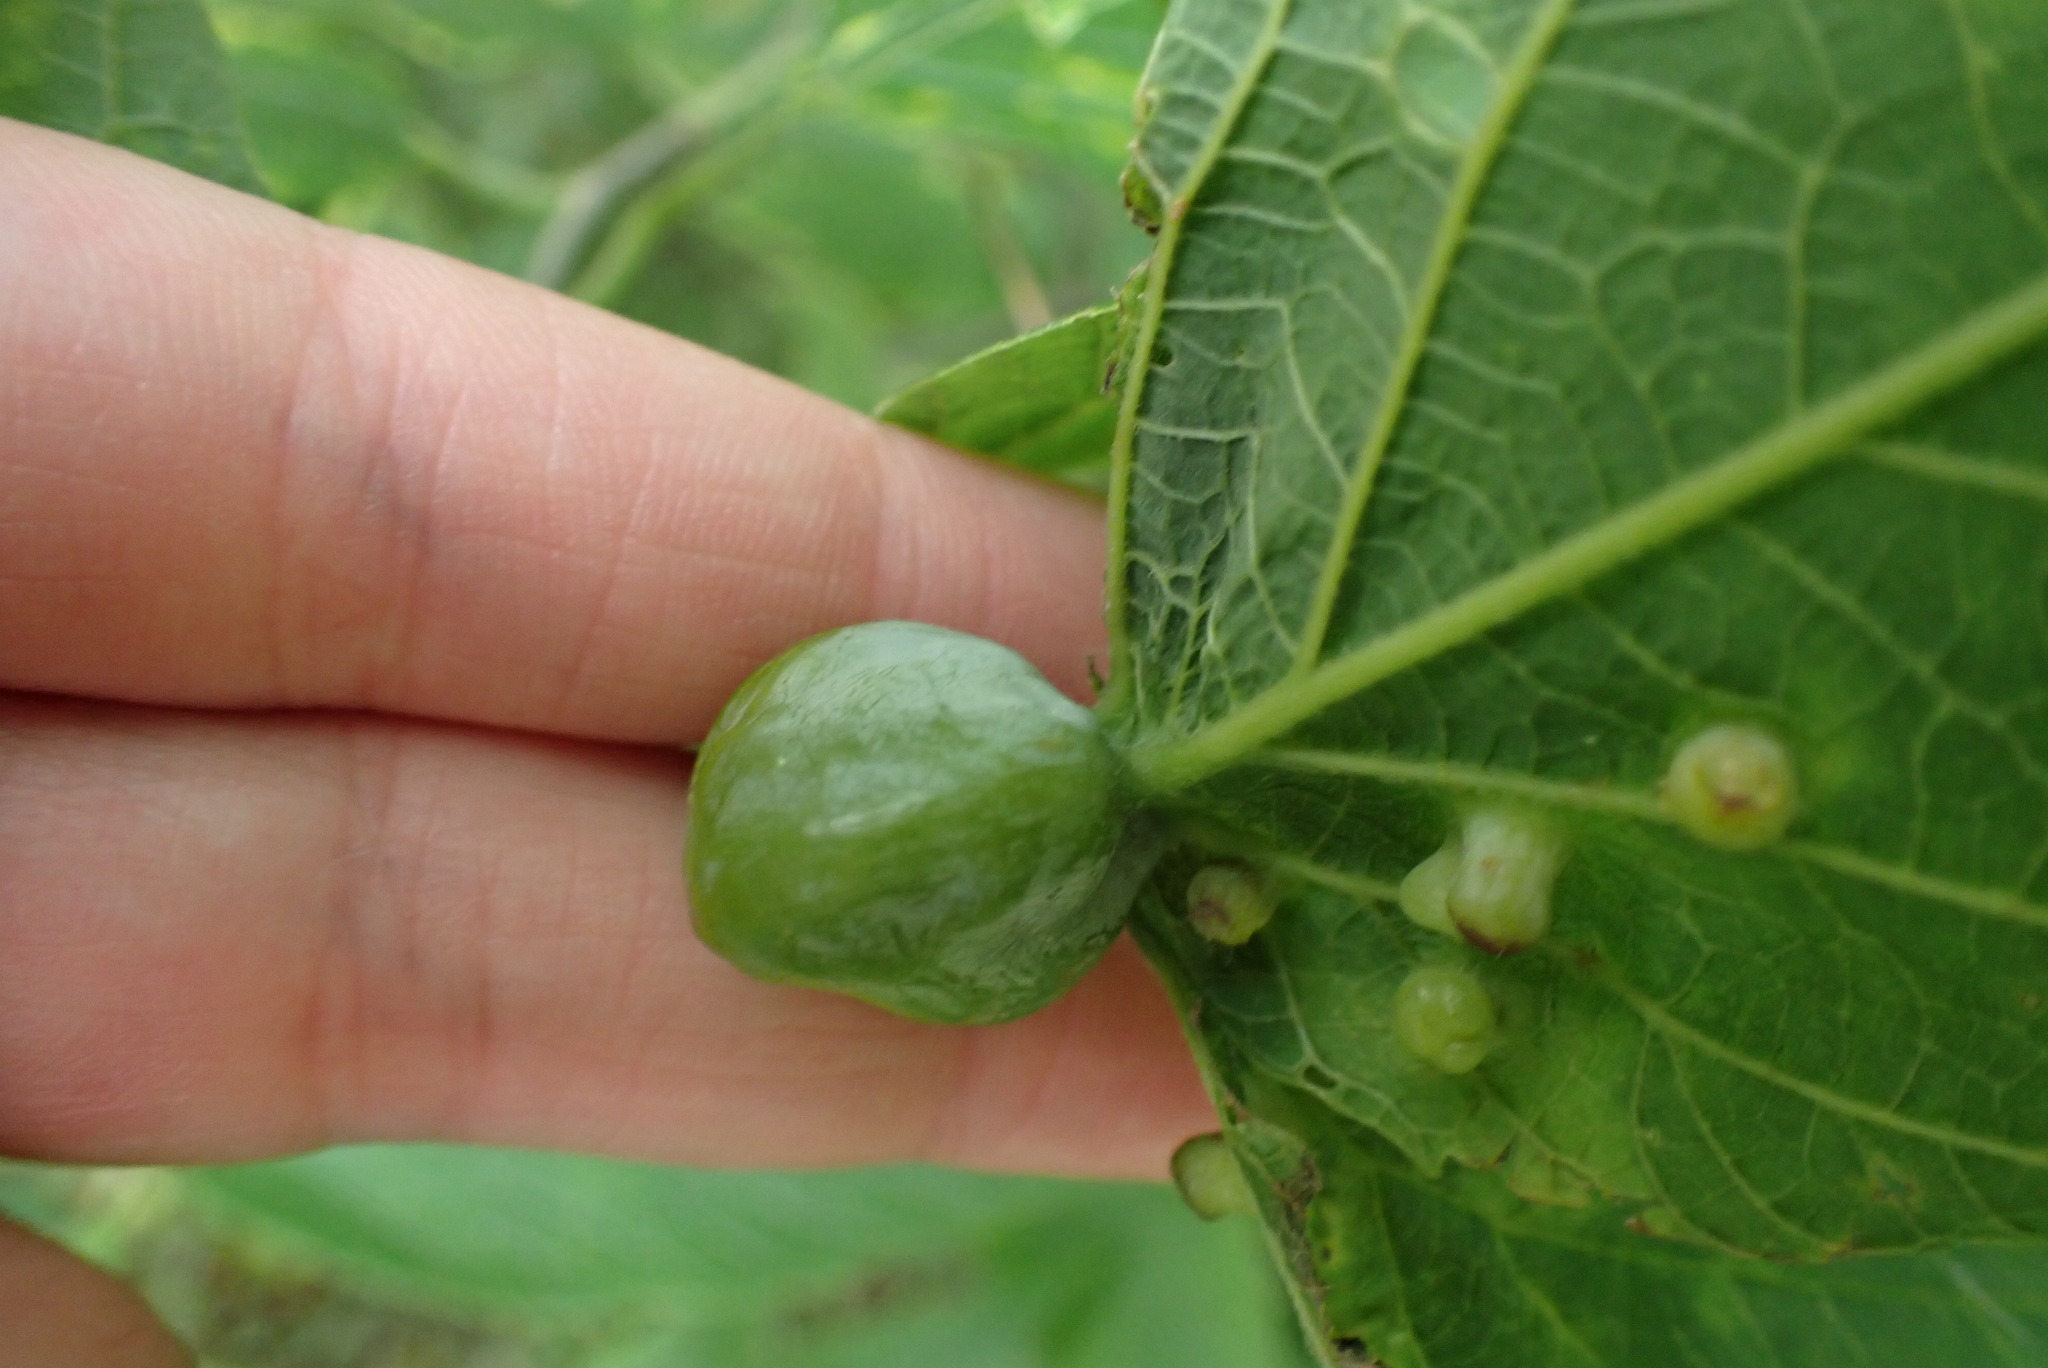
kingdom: Animalia
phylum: Arthropoda
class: Insecta
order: Hemiptera
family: Aphalaridae
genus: Pachypsylla
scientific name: Pachypsylla venusta
